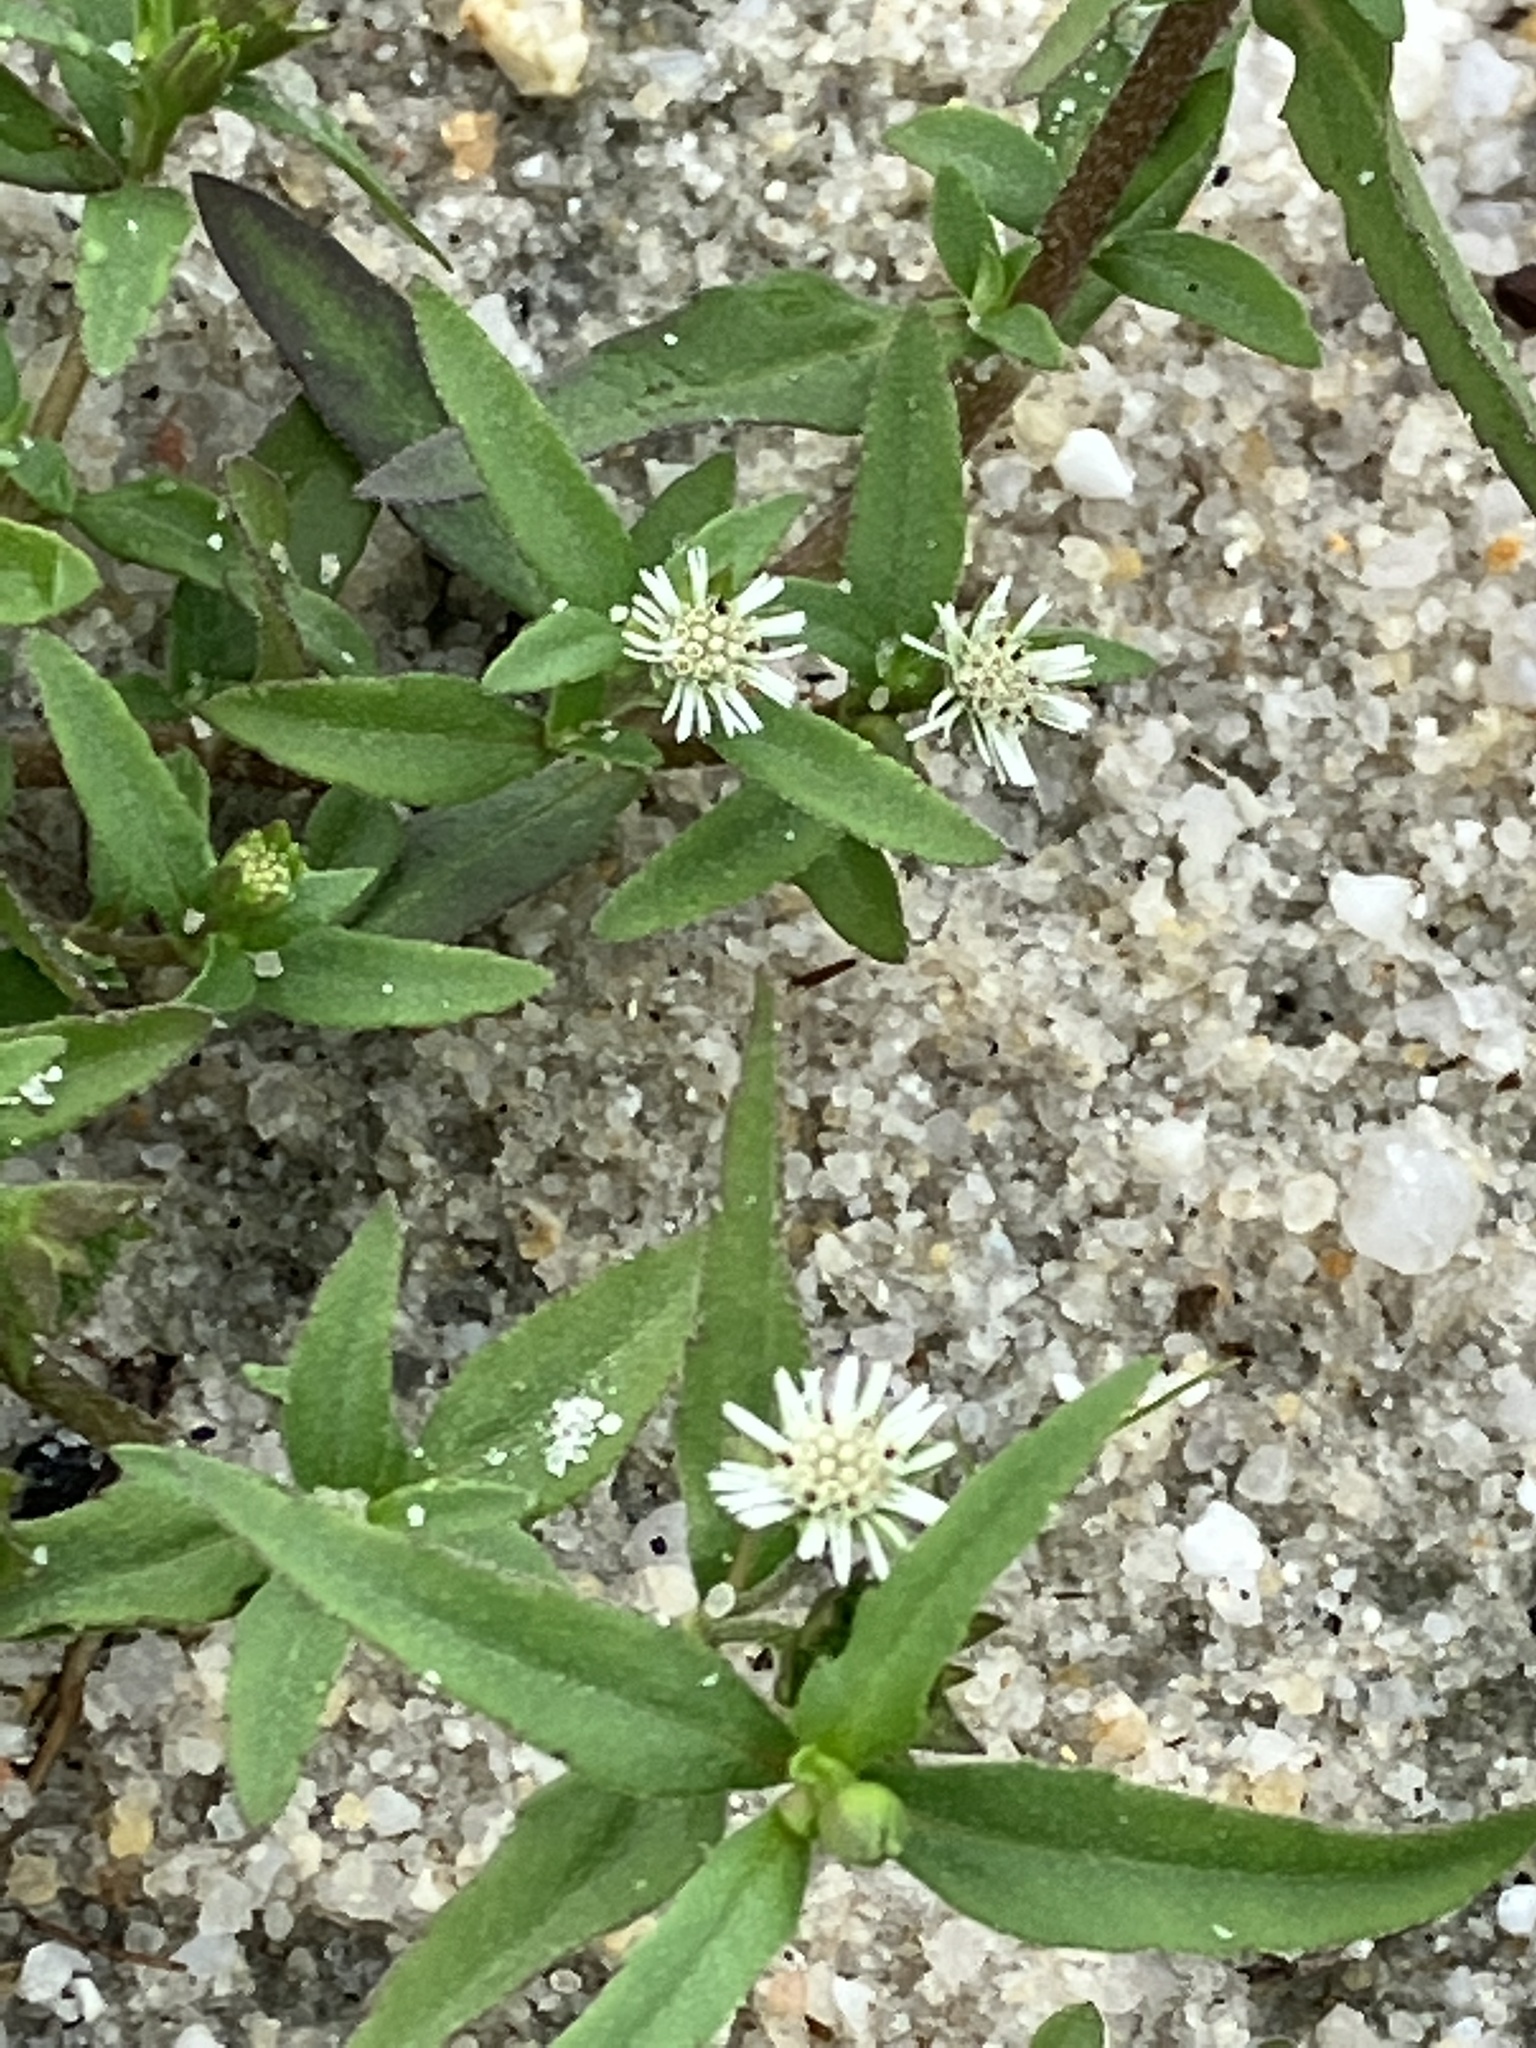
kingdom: Plantae
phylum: Tracheophyta
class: Magnoliopsida
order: Asterales
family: Asteraceae
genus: Eclipta
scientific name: Eclipta prostrata
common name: False daisy
